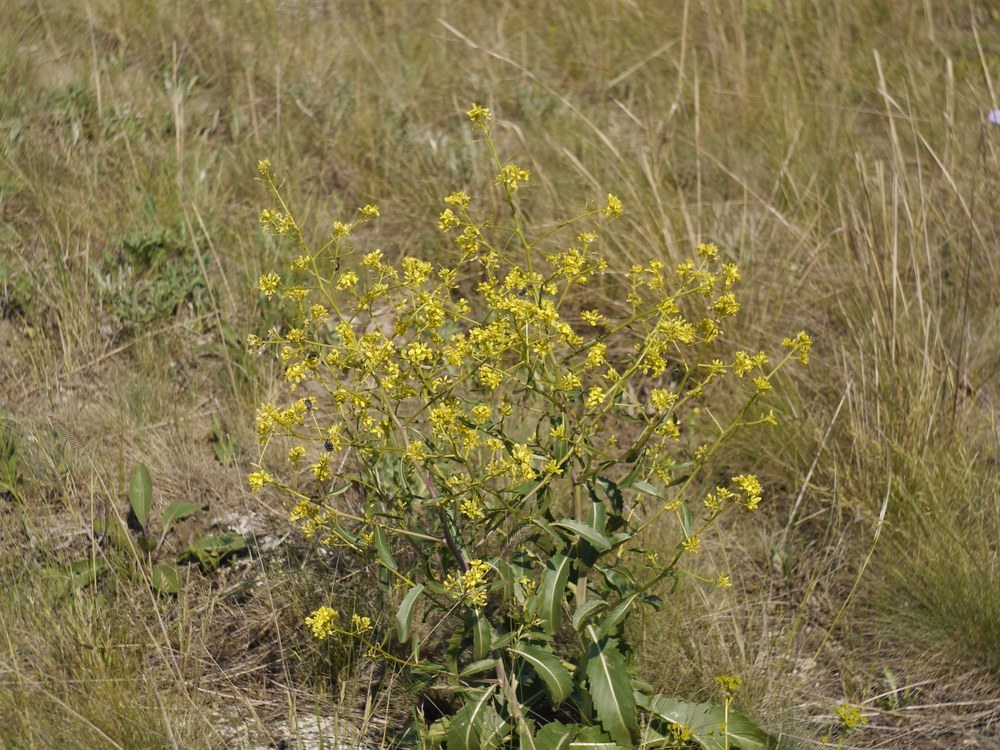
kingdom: Plantae
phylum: Tracheophyta
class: Magnoliopsida
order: Brassicales
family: Brassicaceae
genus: Brassica
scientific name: Brassica elongata
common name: Long-stalked rape
